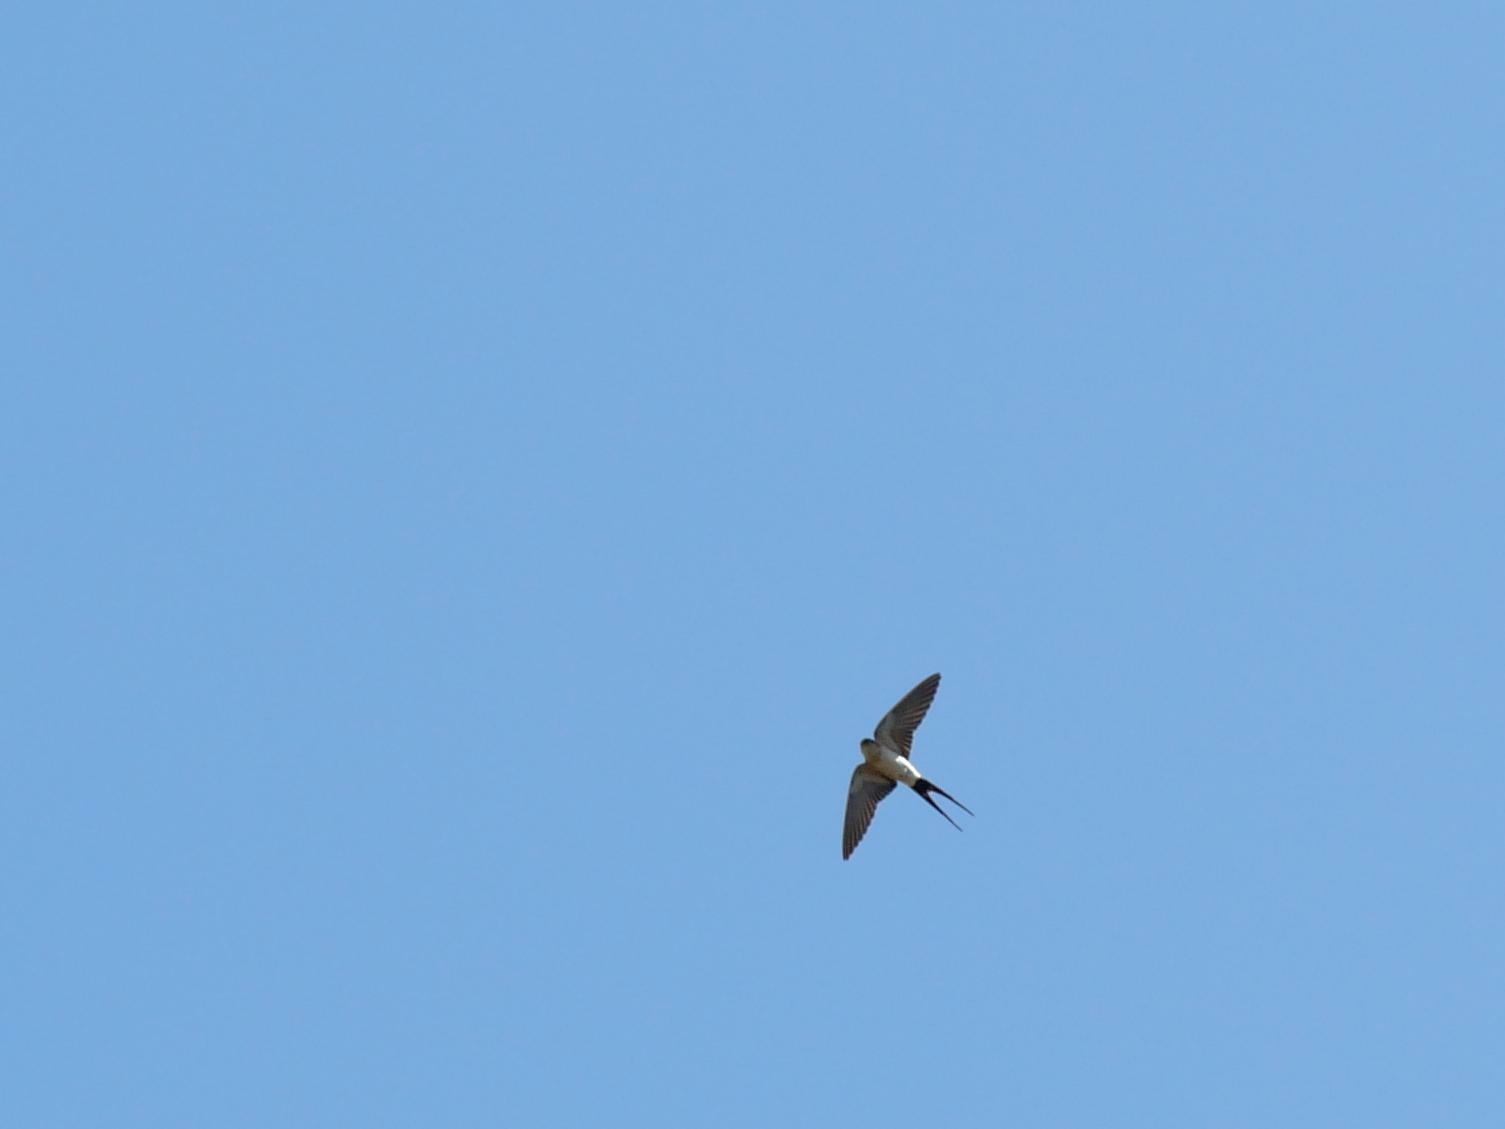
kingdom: Animalia
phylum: Chordata
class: Aves
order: Passeriformes
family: Hirundinidae
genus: Cecropis
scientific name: Cecropis daurica
